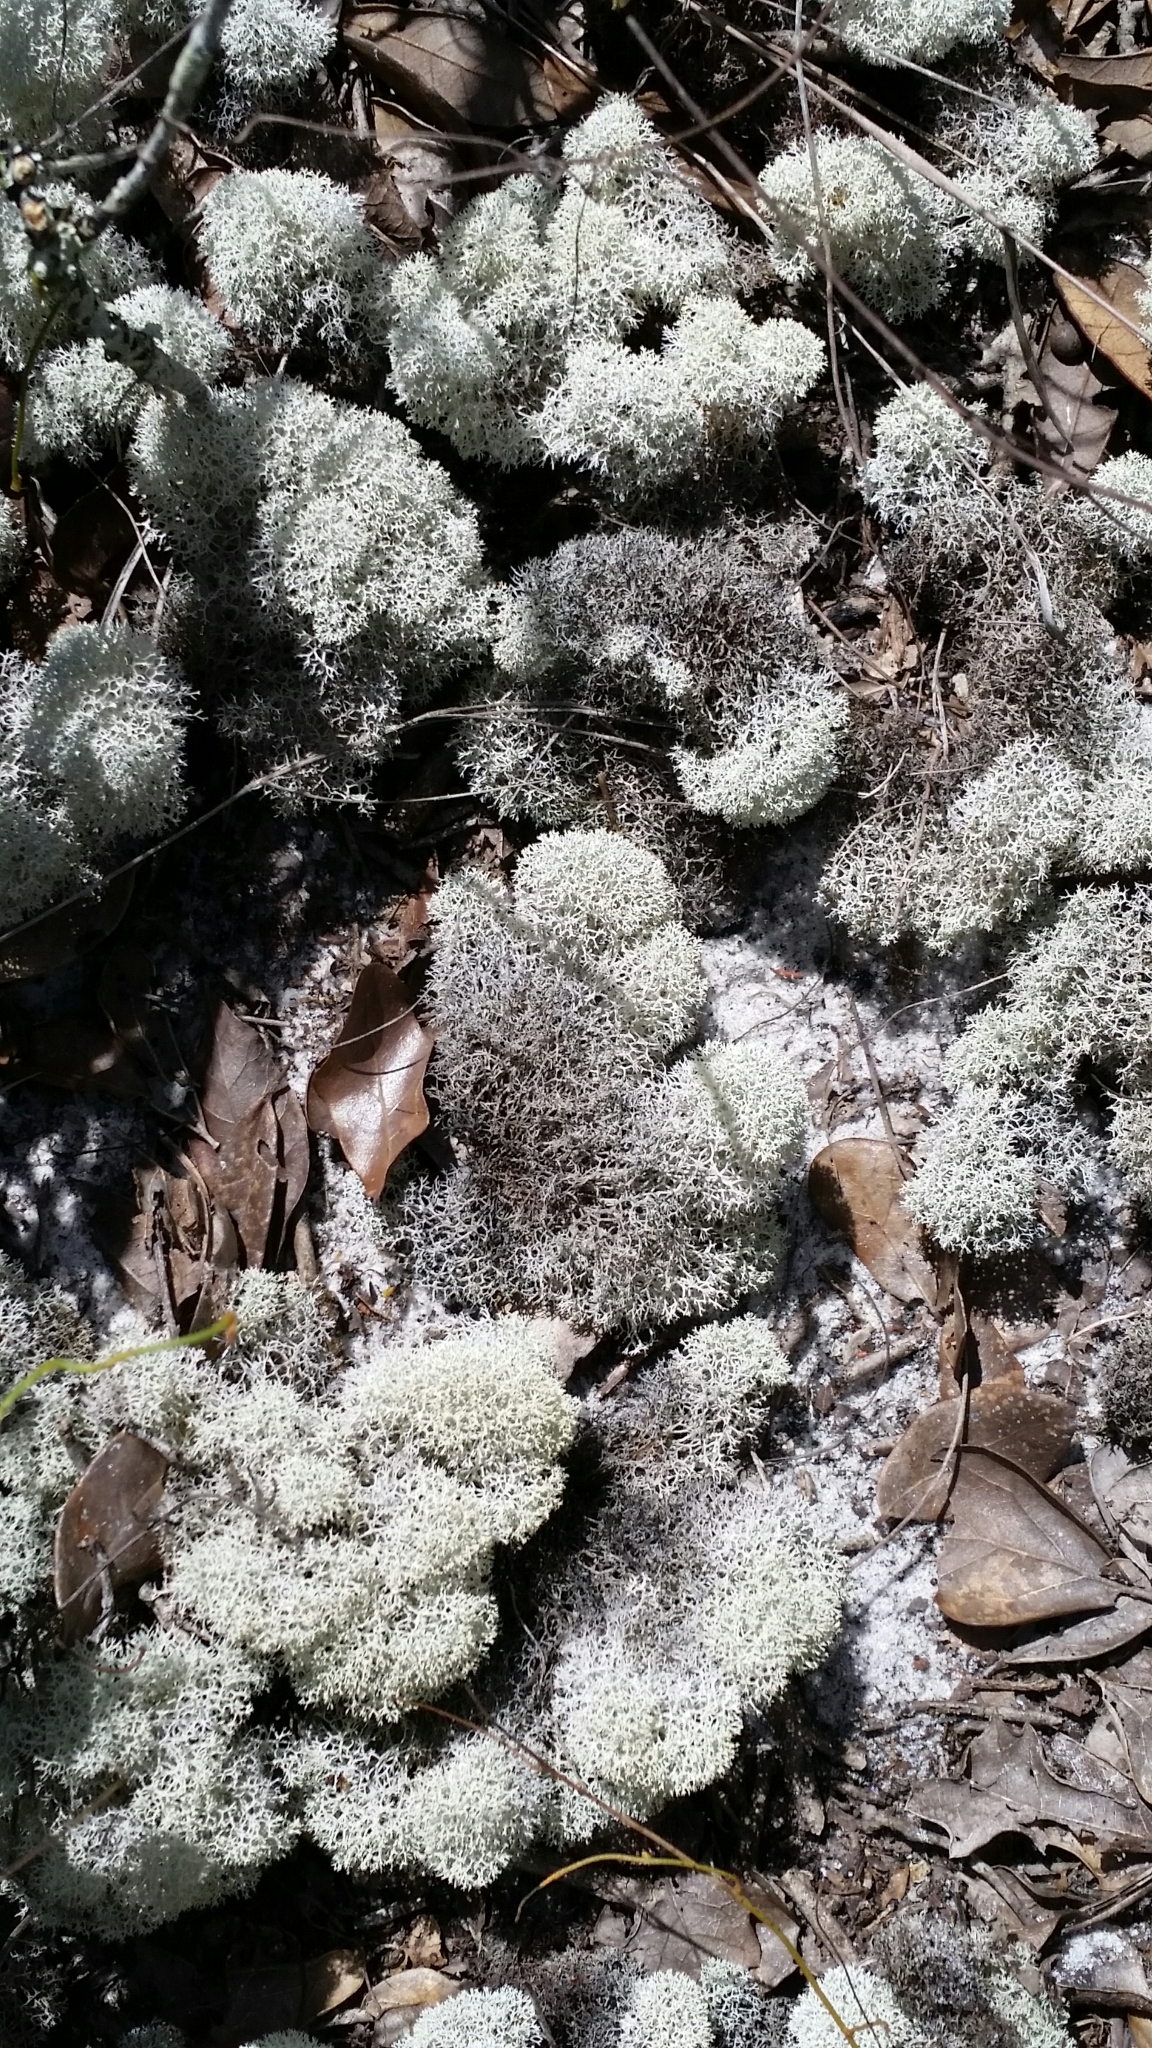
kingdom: Fungi
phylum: Ascomycota
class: Lecanoromycetes
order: Lecanorales
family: Cladoniaceae
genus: Cladonia
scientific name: Cladonia evansii
